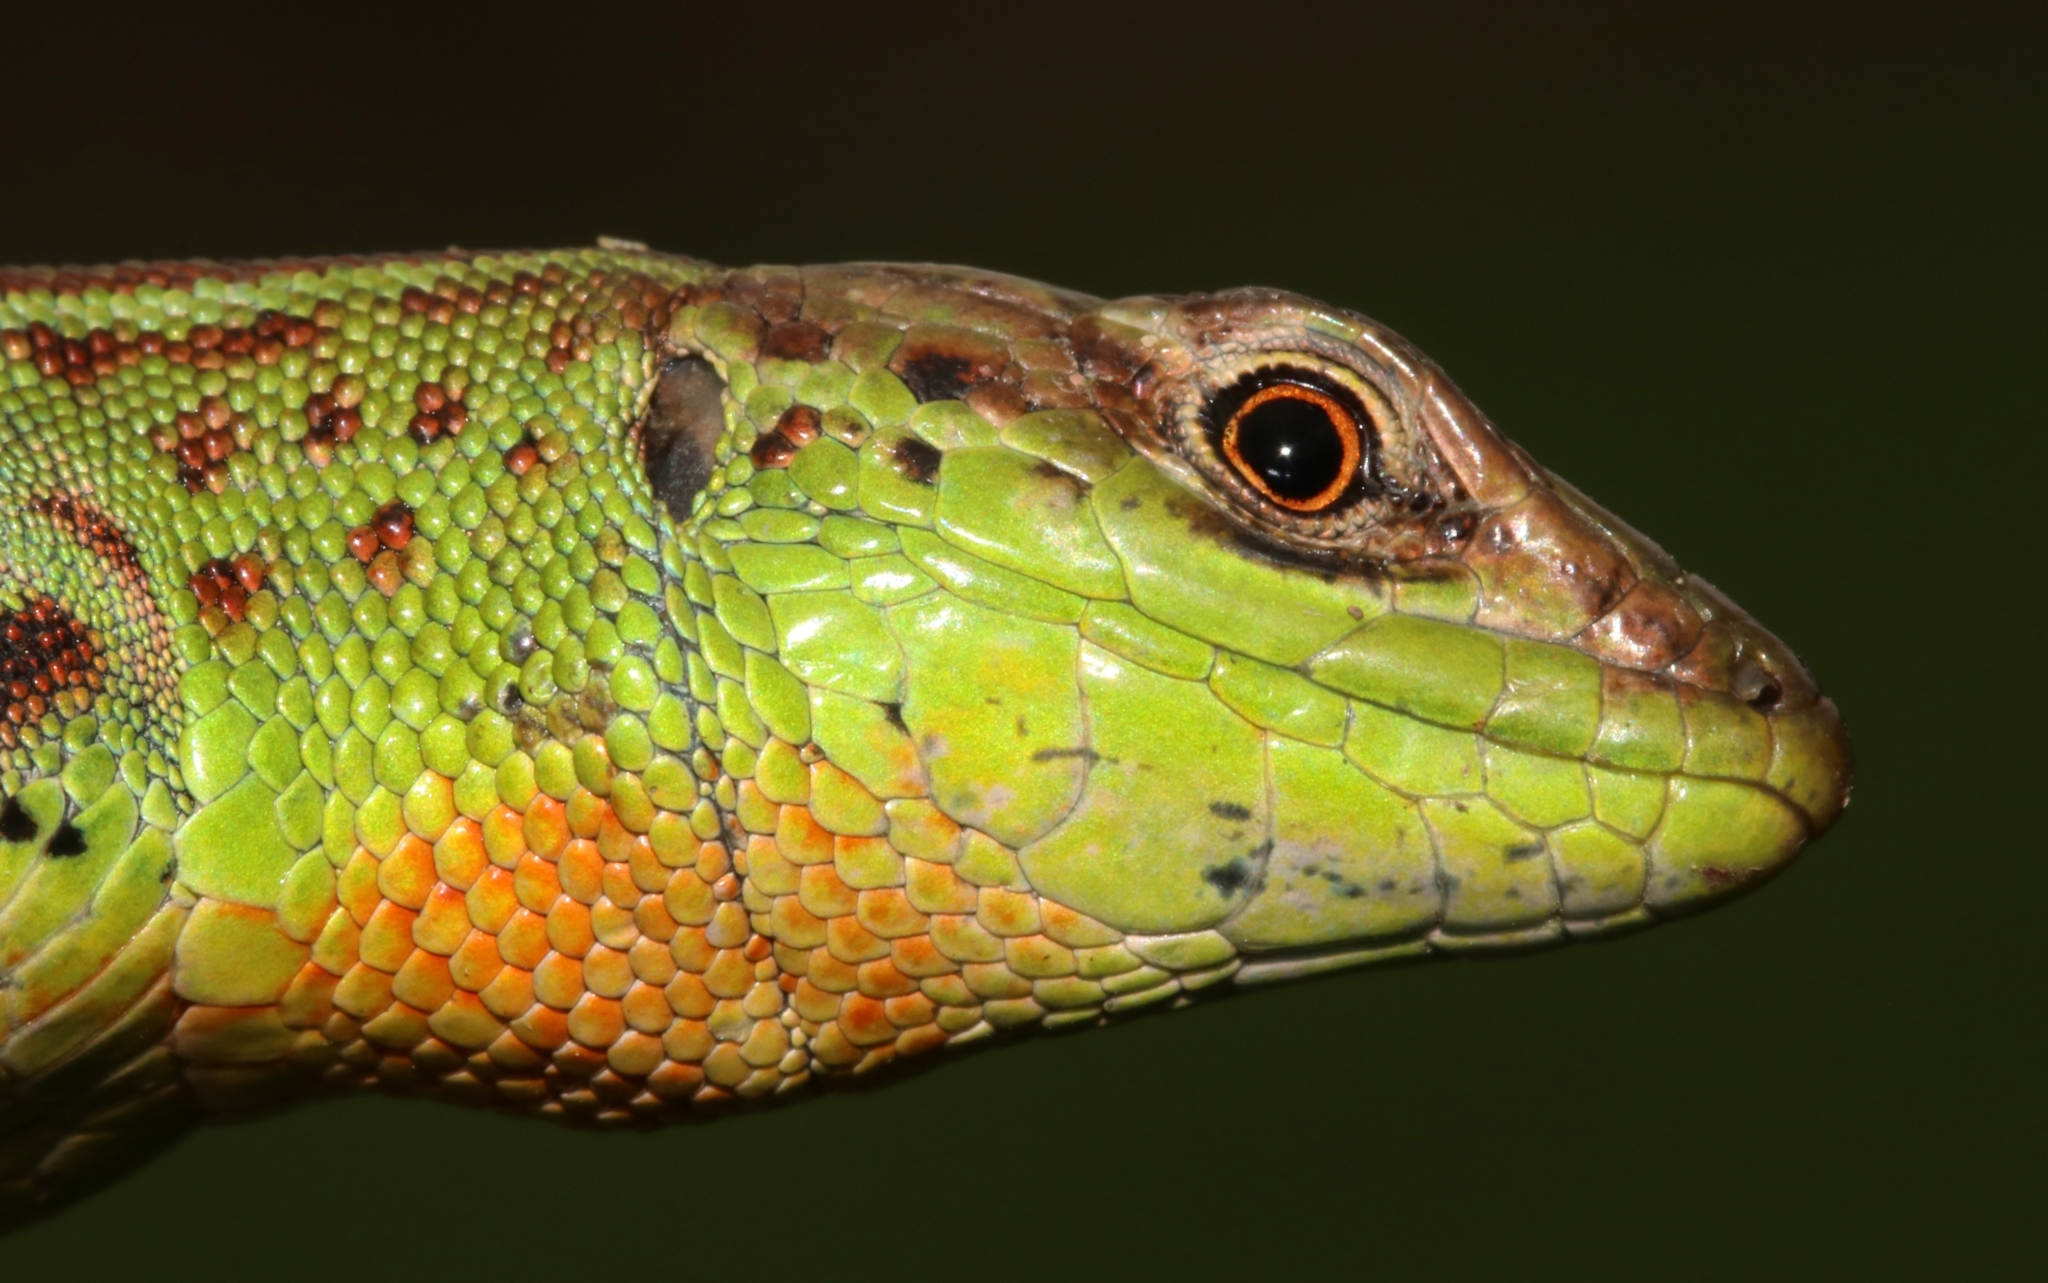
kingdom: Animalia
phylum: Chordata
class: Squamata
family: Lacertidae
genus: Podarcis
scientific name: Podarcis ionicus
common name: Ionian wall lizard
